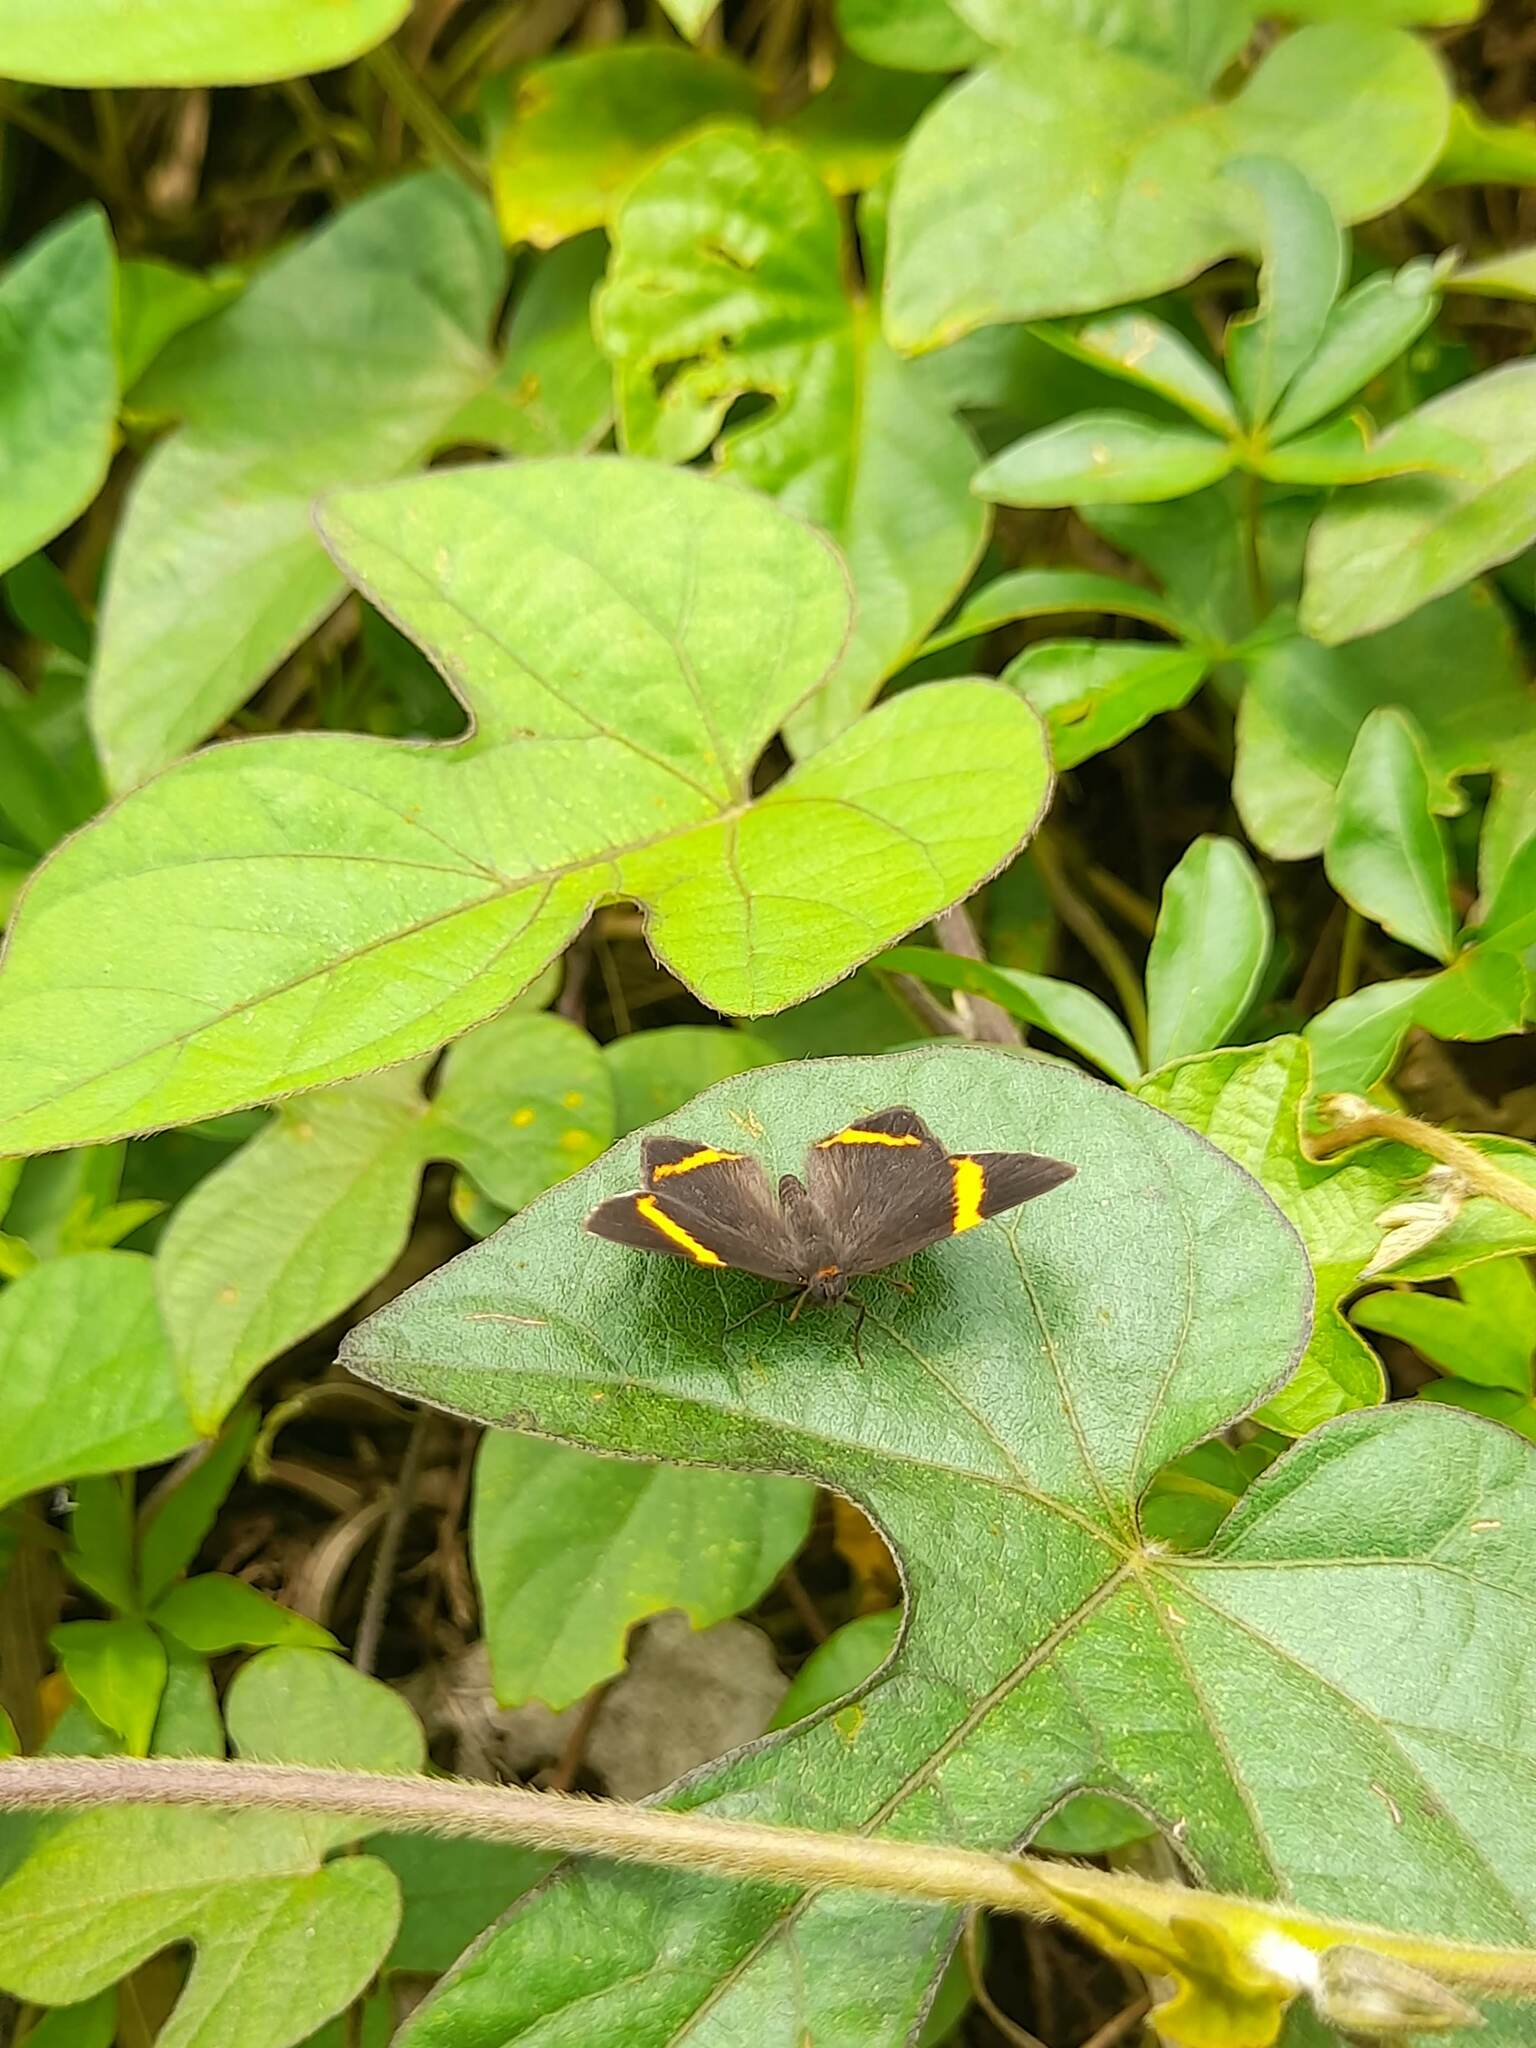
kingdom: Animalia
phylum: Arthropoda
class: Insecta
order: Lepidoptera
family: Riodinidae
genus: Riodina
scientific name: Riodina lysippoides
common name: Little dancer metalmark
